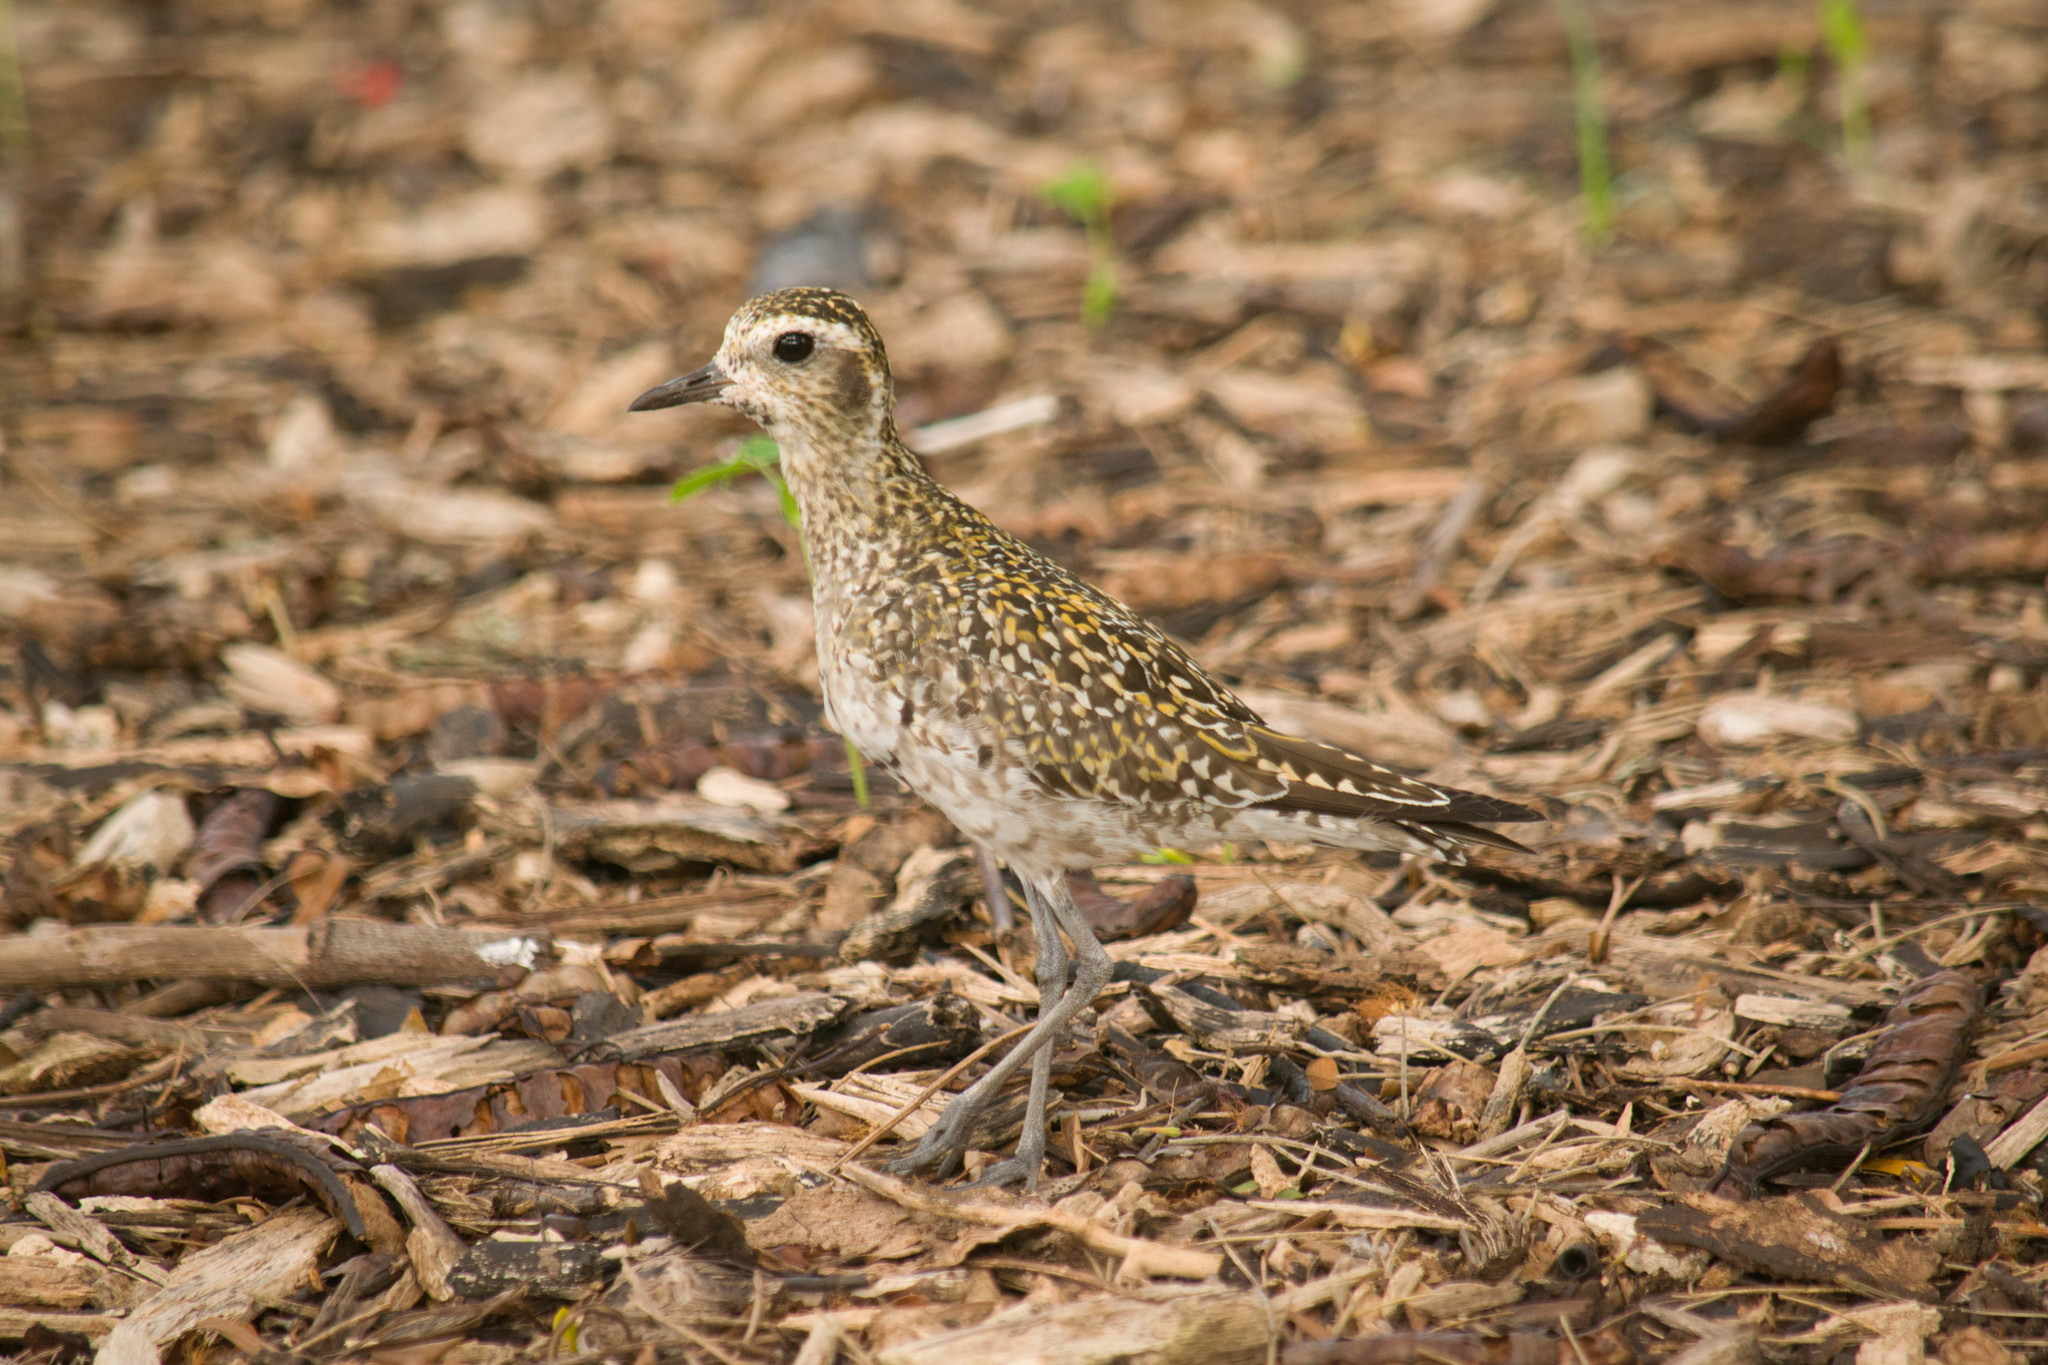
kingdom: Animalia
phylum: Chordata
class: Aves
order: Charadriiformes
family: Charadriidae
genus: Pluvialis
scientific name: Pluvialis fulva
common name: Pacific golden plover
